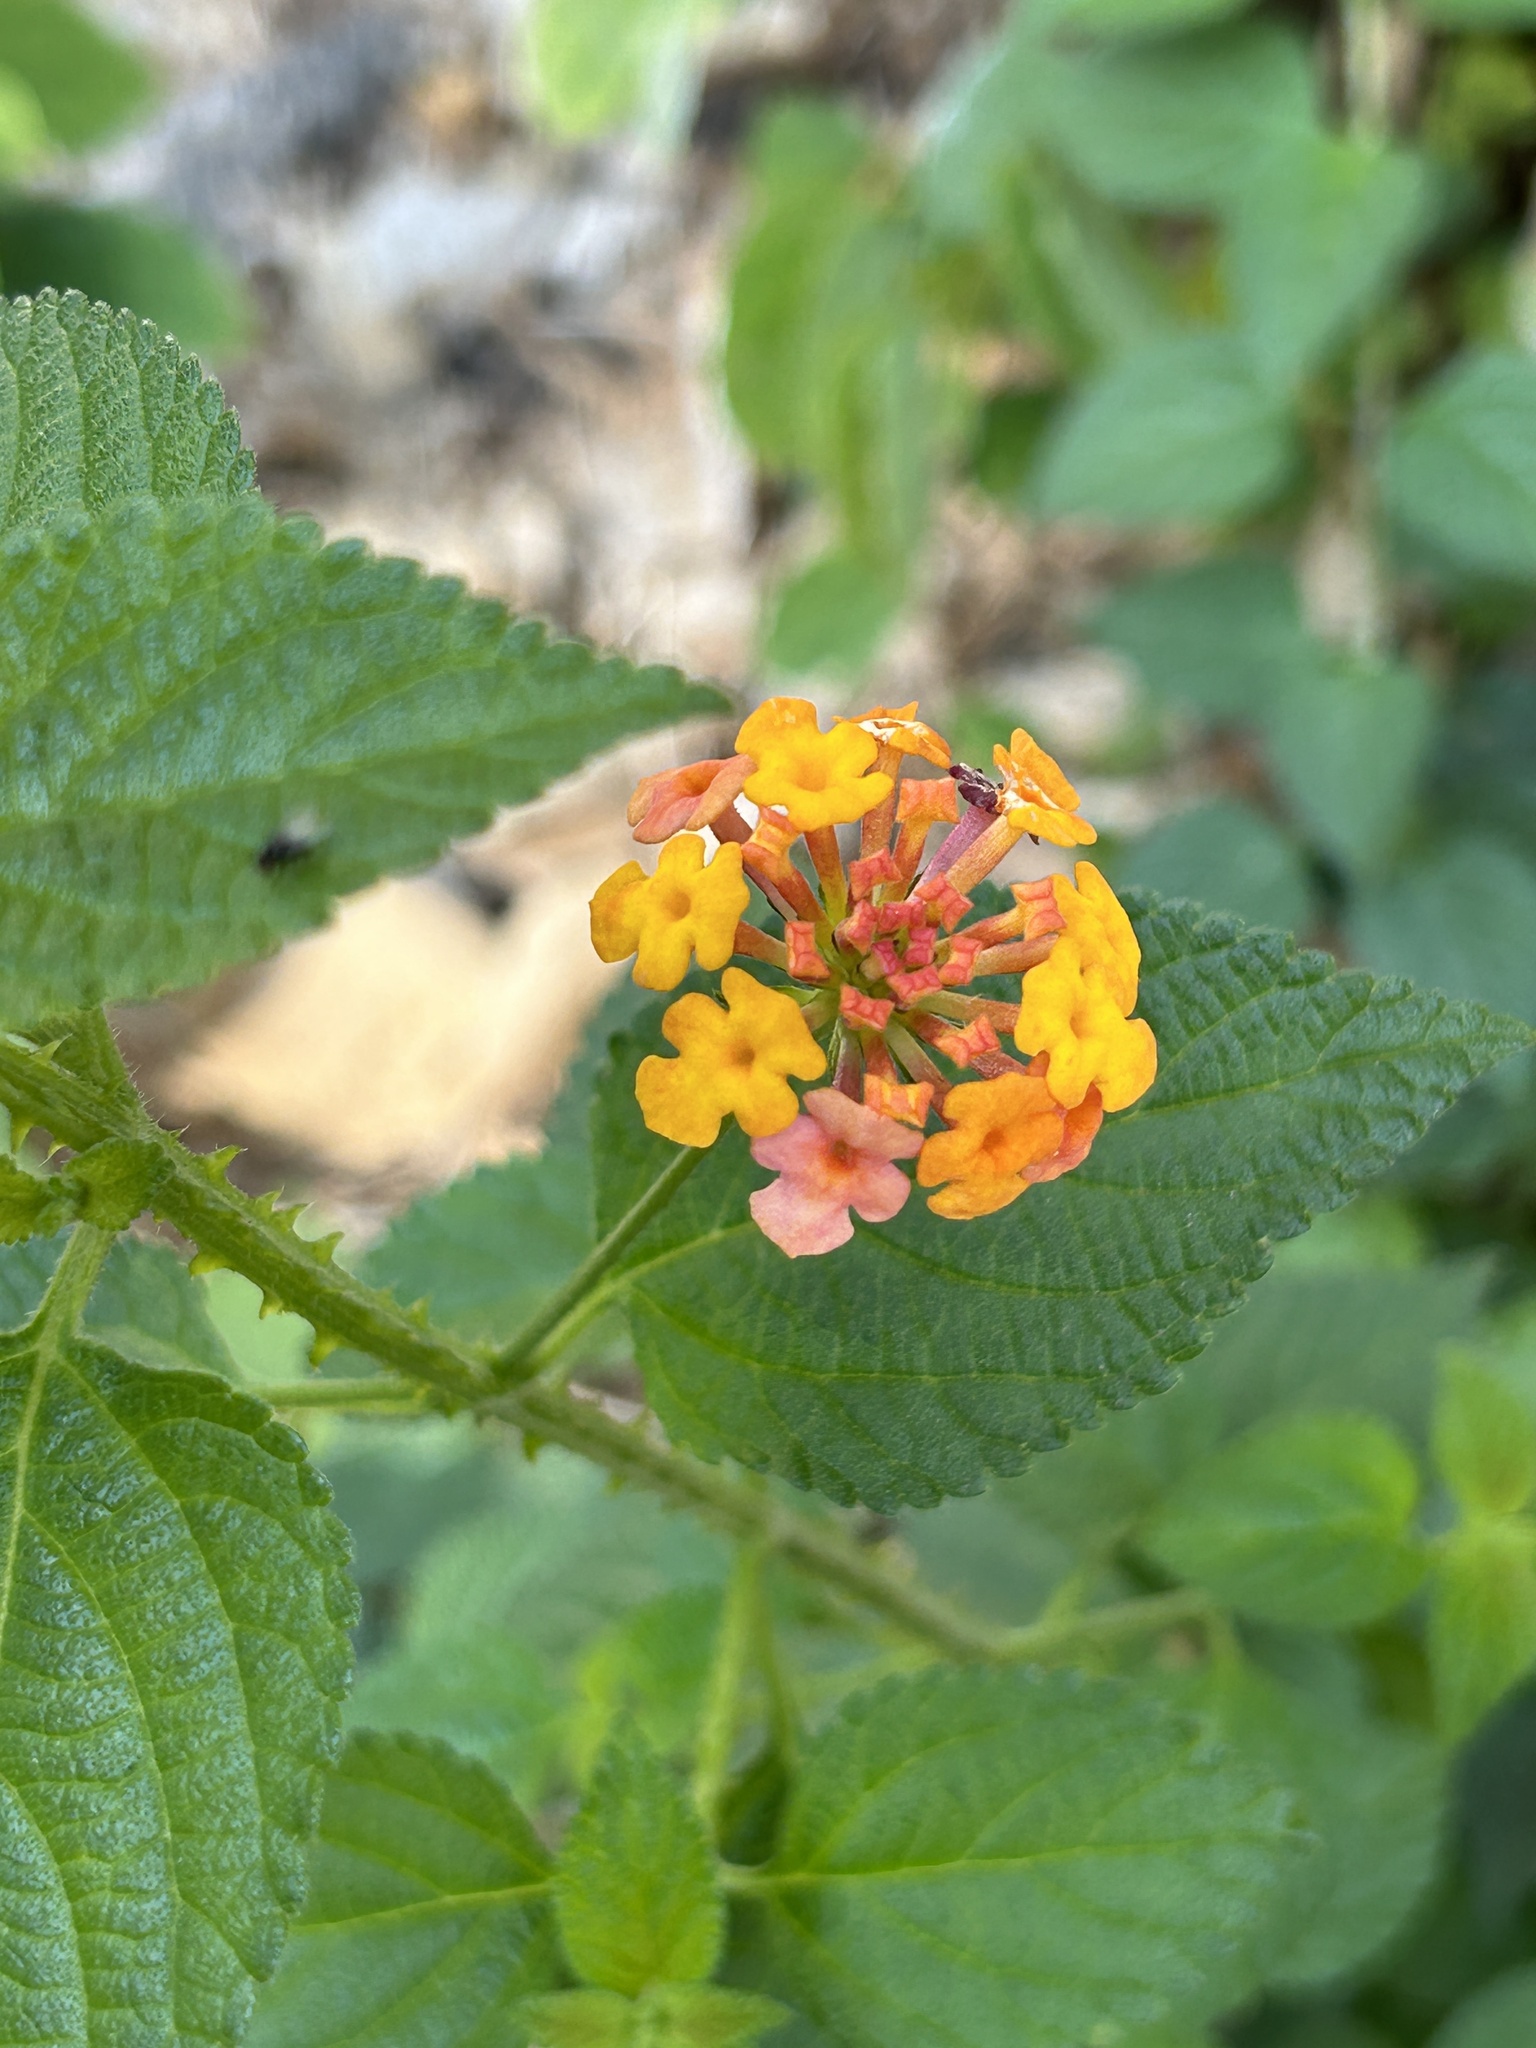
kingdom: Plantae
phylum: Tracheophyta
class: Magnoliopsida
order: Lamiales
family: Verbenaceae
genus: Lantana
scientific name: Lantana camara
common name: Lantana
